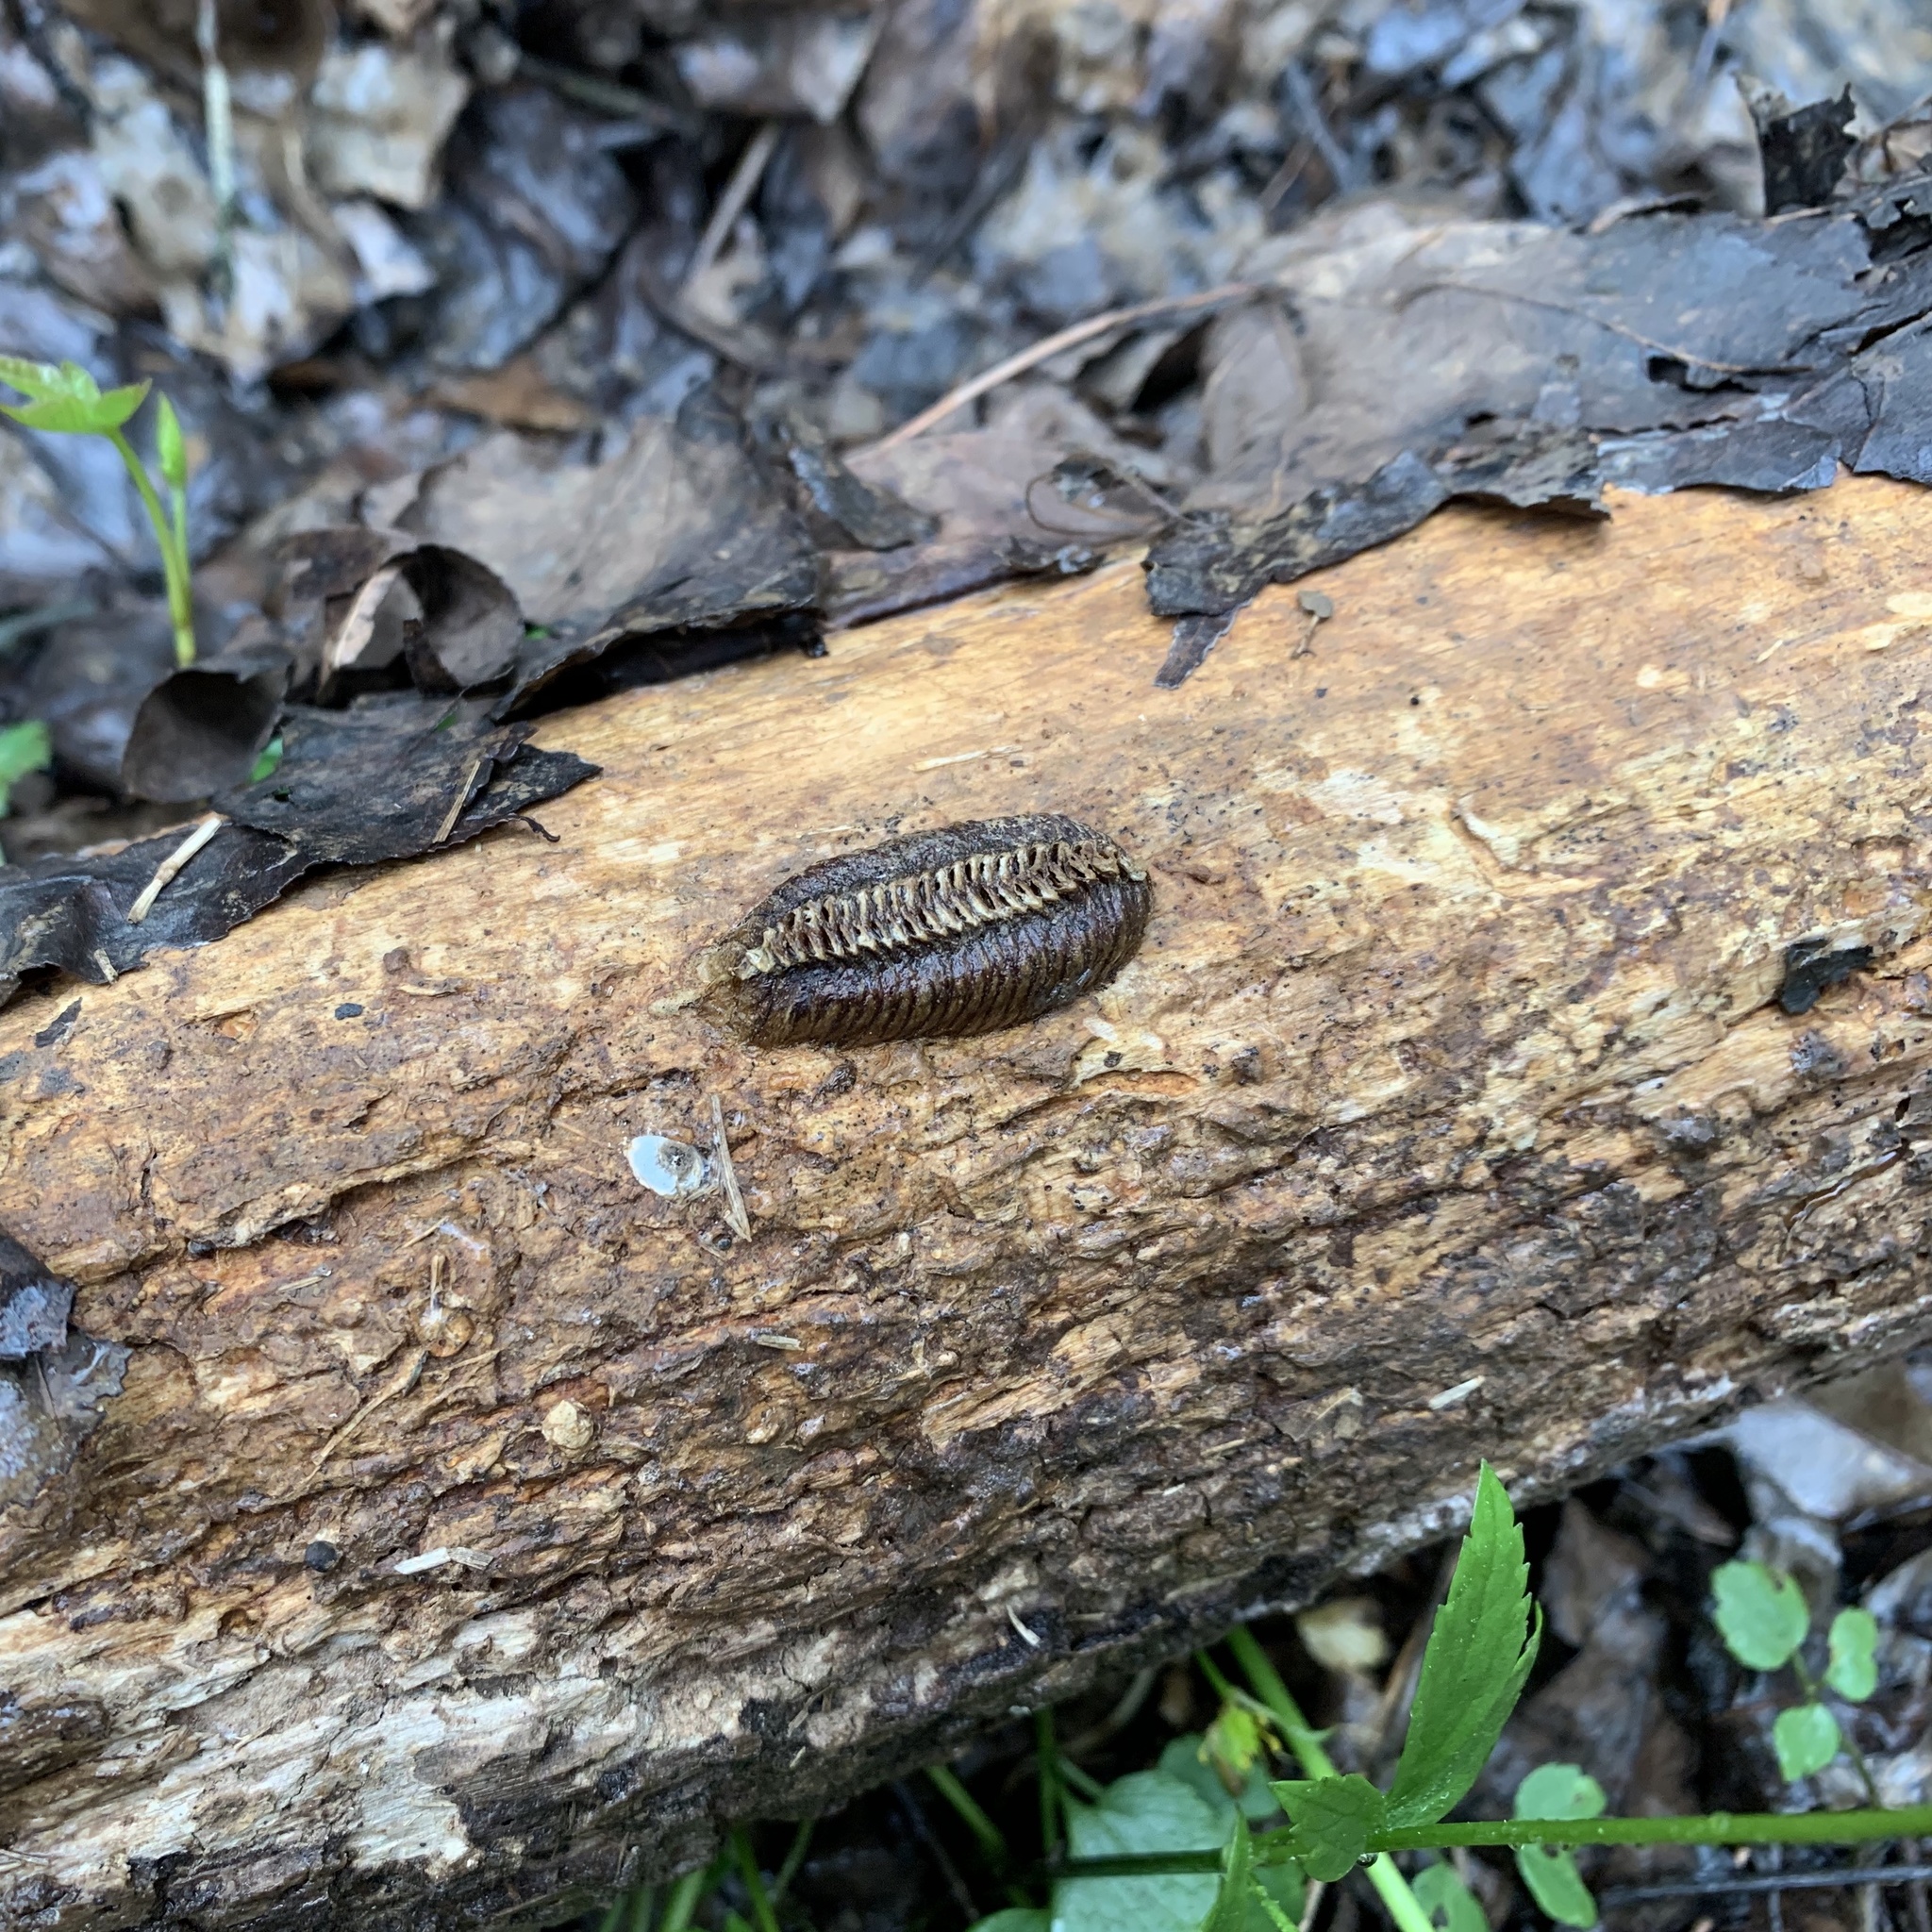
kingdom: Animalia
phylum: Arthropoda
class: Insecta
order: Mantodea
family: Mantidae
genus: Stagmomantis
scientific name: Stagmomantis carolina
